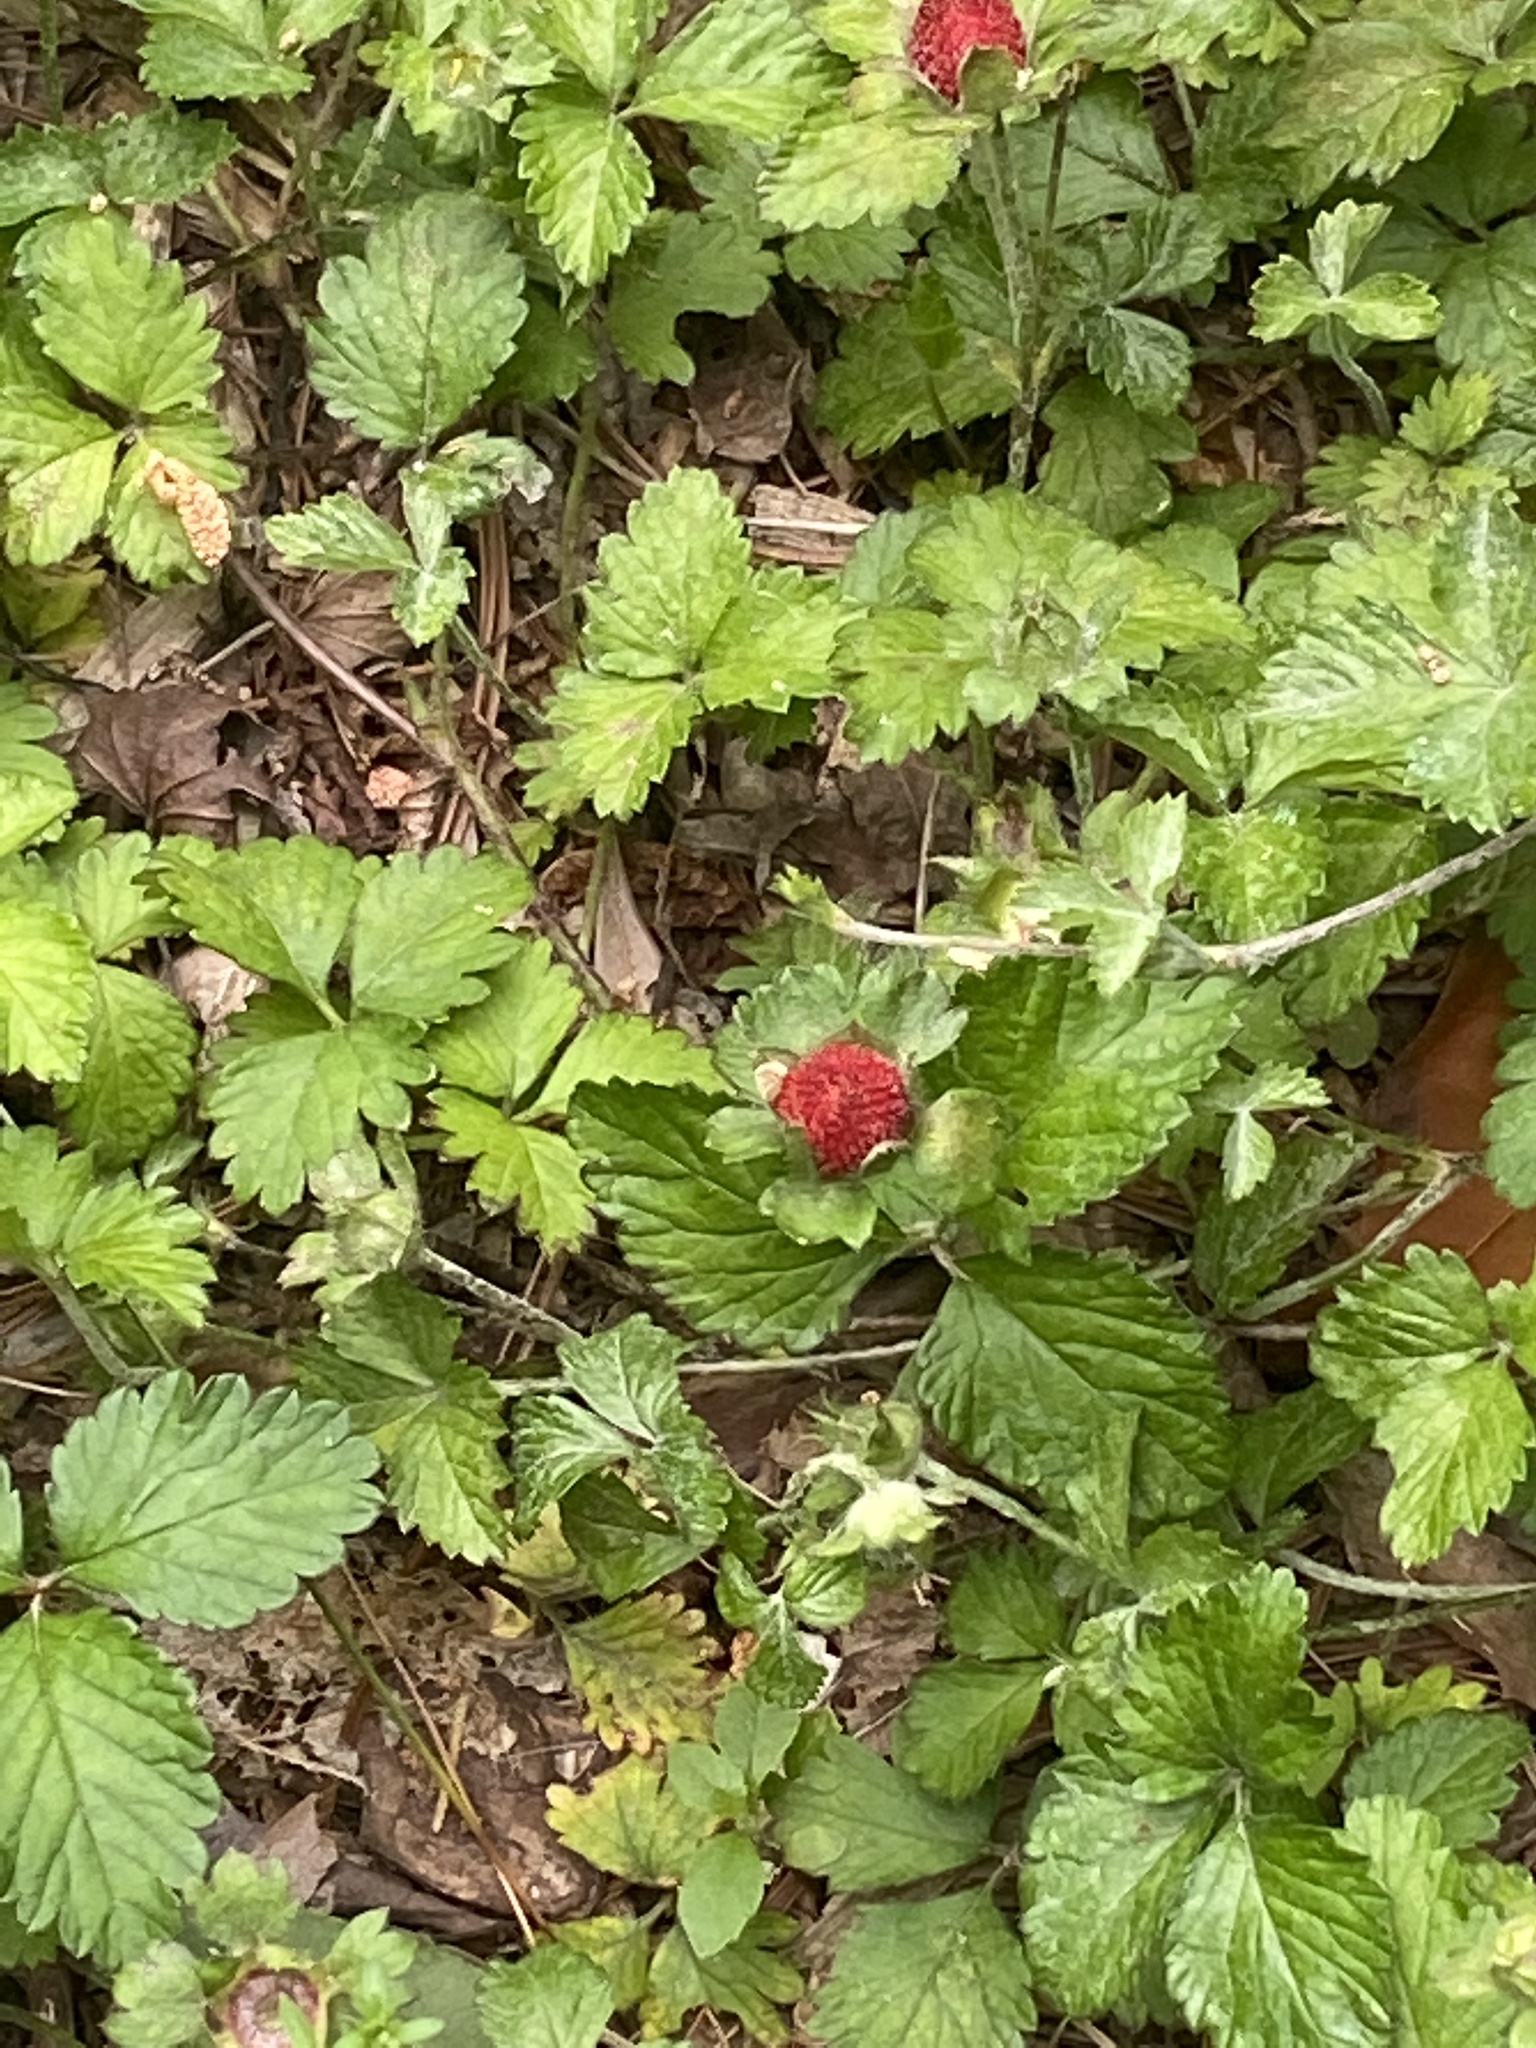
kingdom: Plantae
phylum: Tracheophyta
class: Magnoliopsida
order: Rosales
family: Rosaceae
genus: Potentilla
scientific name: Potentilla indica
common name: Yellow-flowered strawberry
